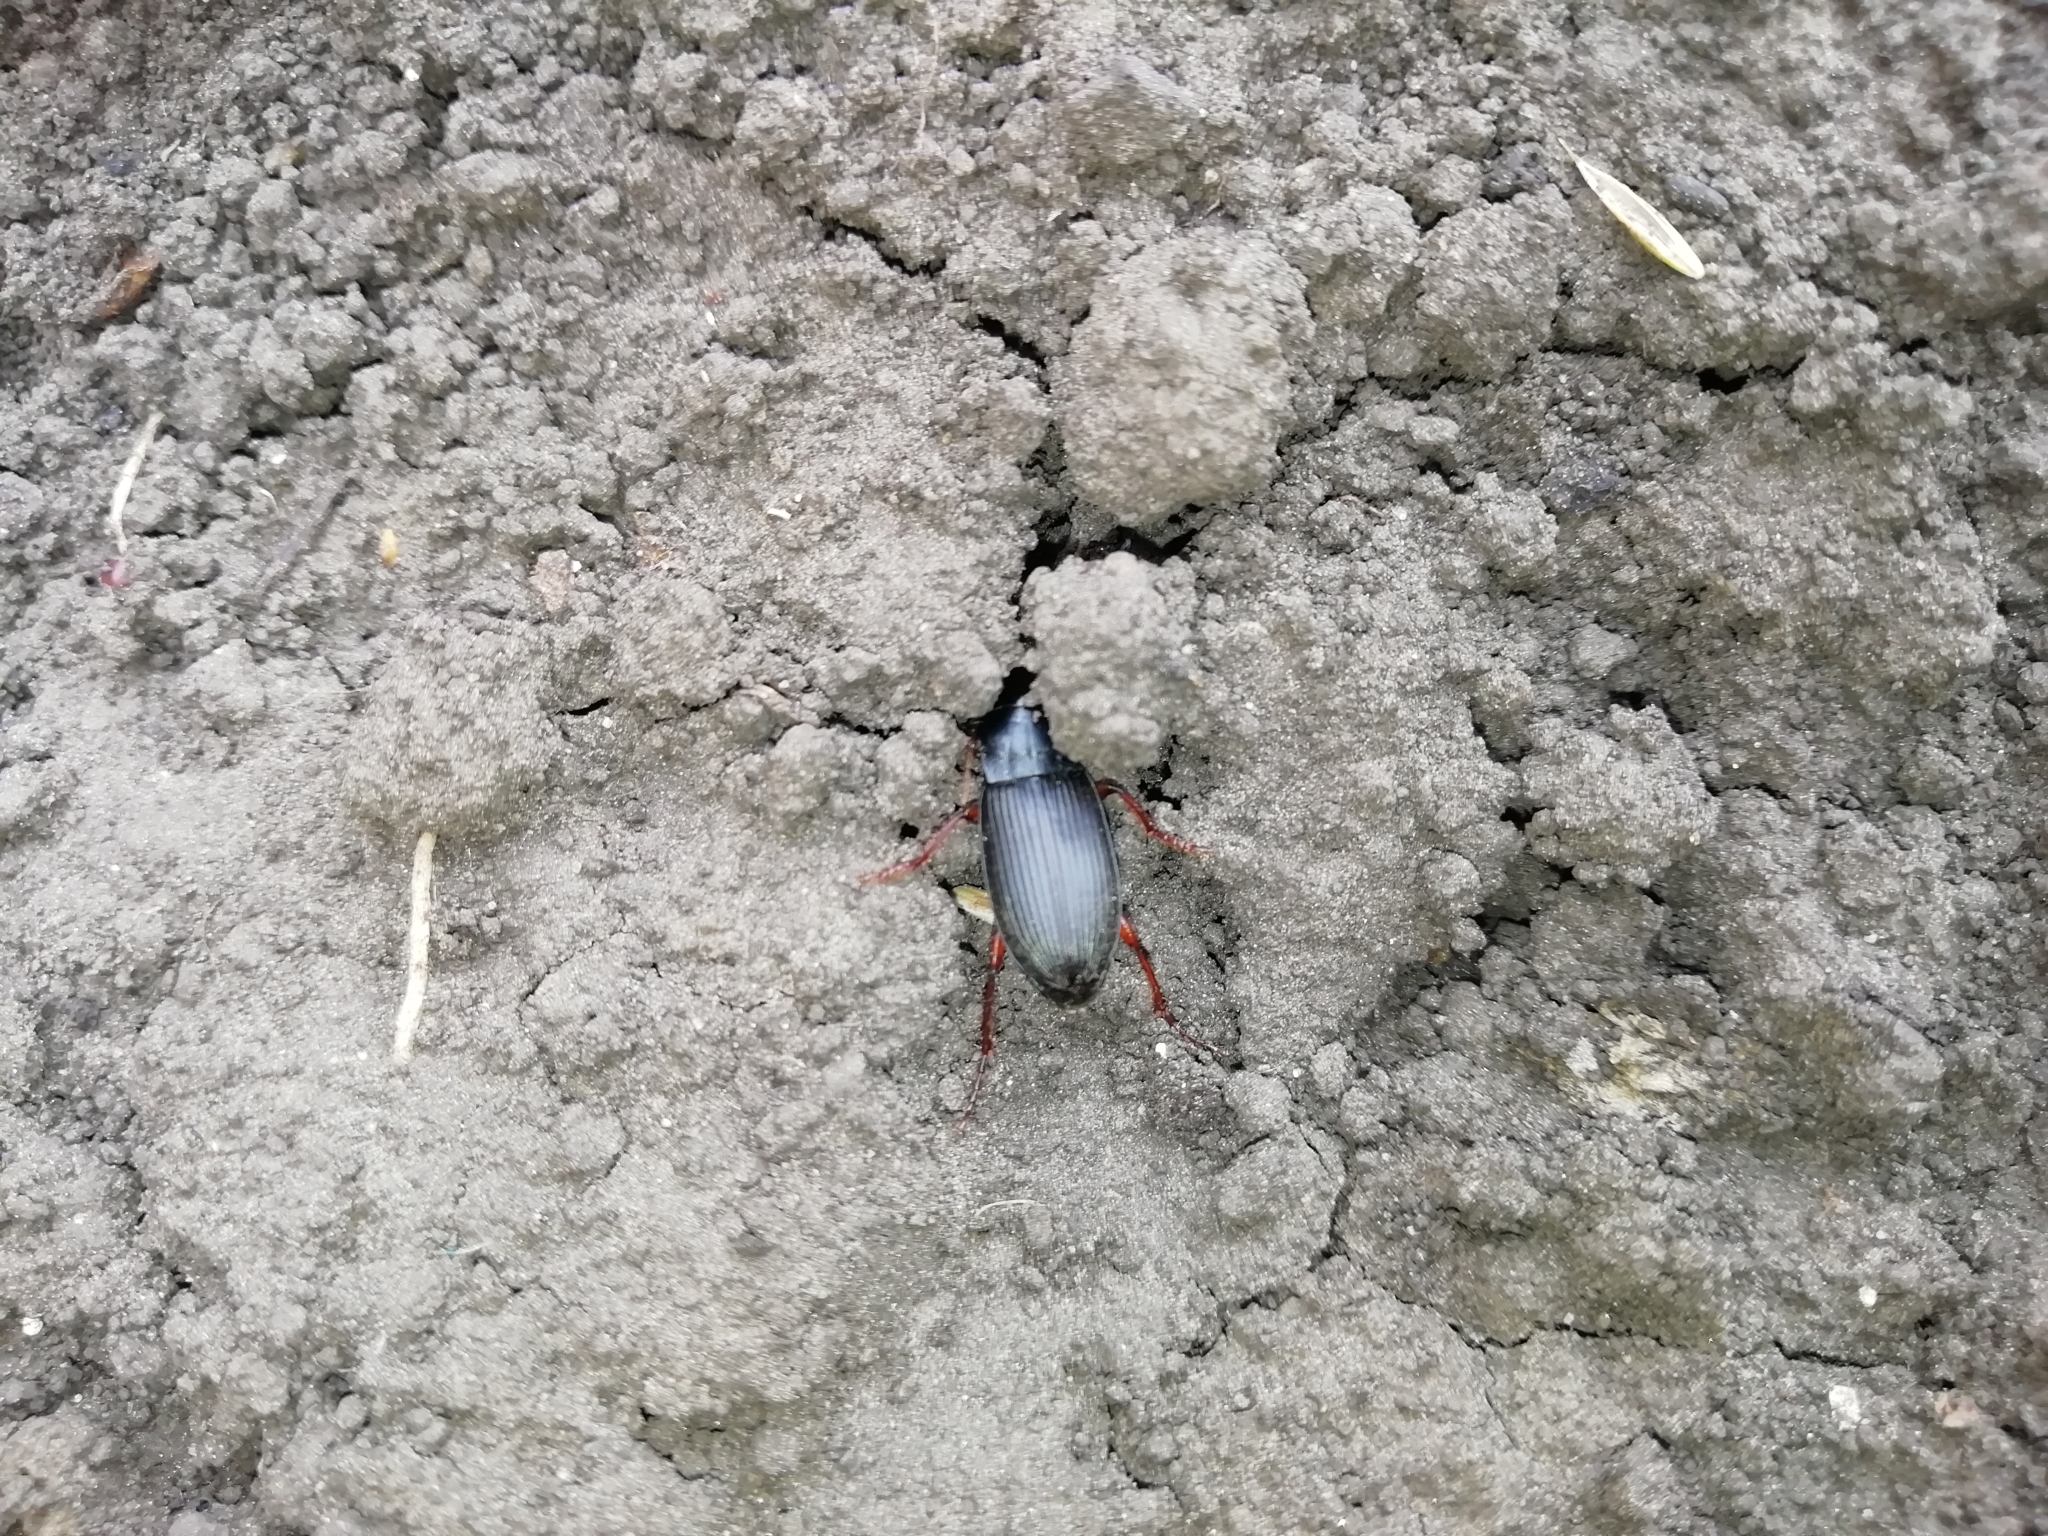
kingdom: Animalia
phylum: Arthropoda
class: Insecta
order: Coleoptera
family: Carabidae
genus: Harpalus
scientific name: Harpalus rufipes
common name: Strawberry harp ground beetle
